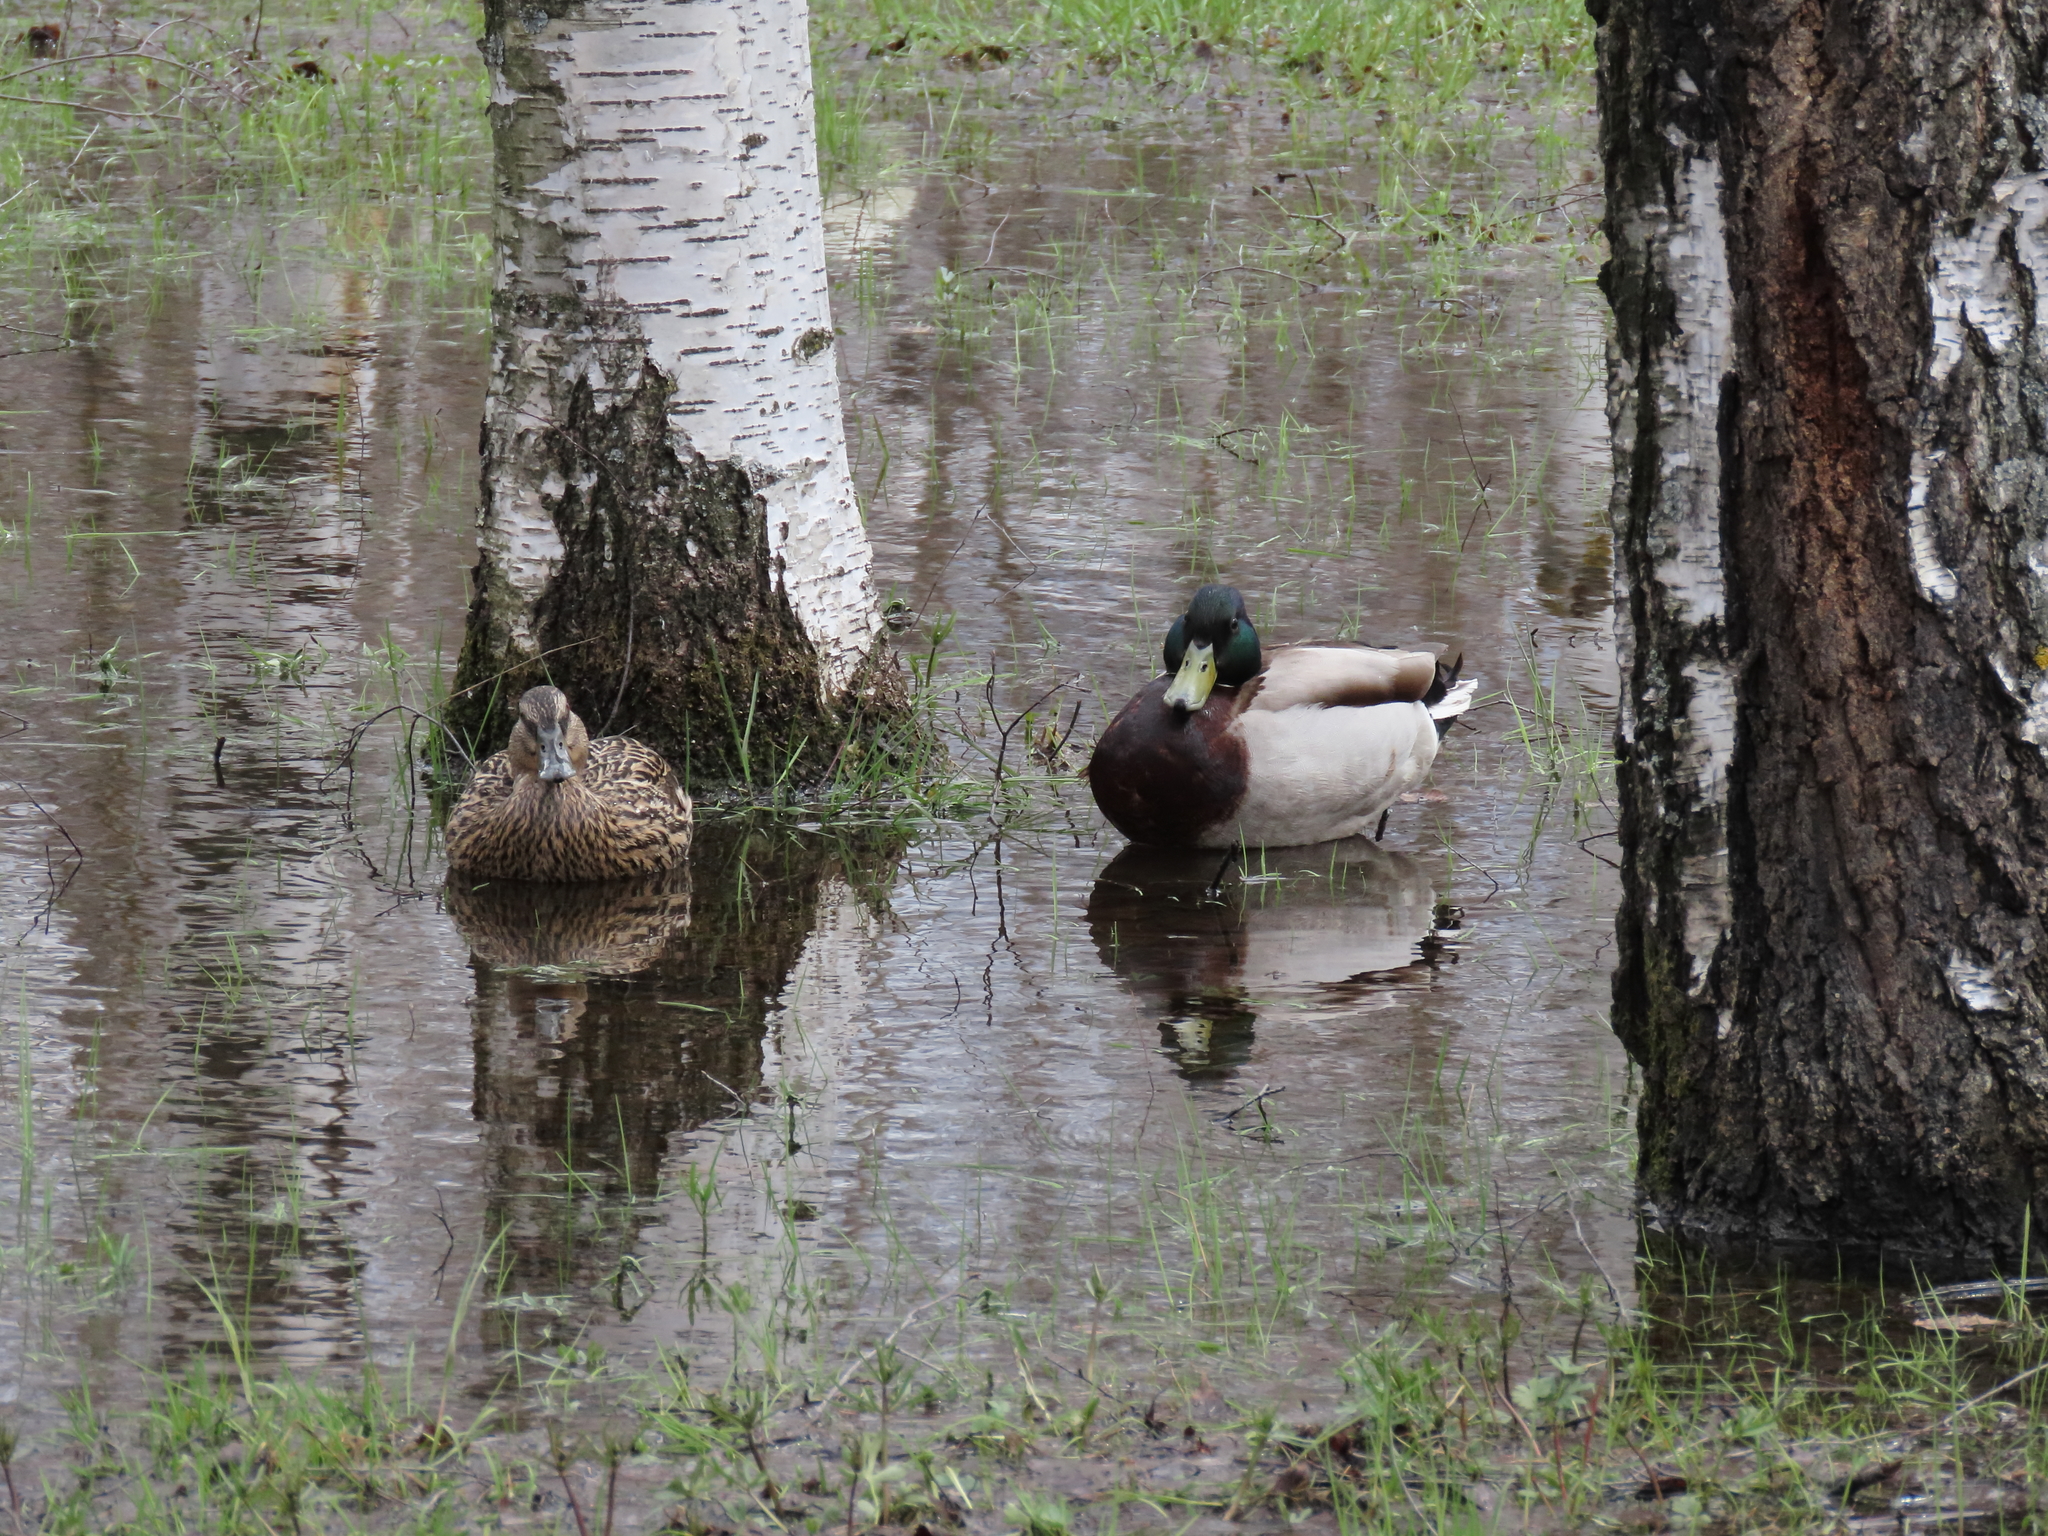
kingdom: Animalia
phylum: Chordata
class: Aves
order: Anseriformes
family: Anatidae
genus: Anas
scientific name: Anas platyrhynchos
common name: Mallard
